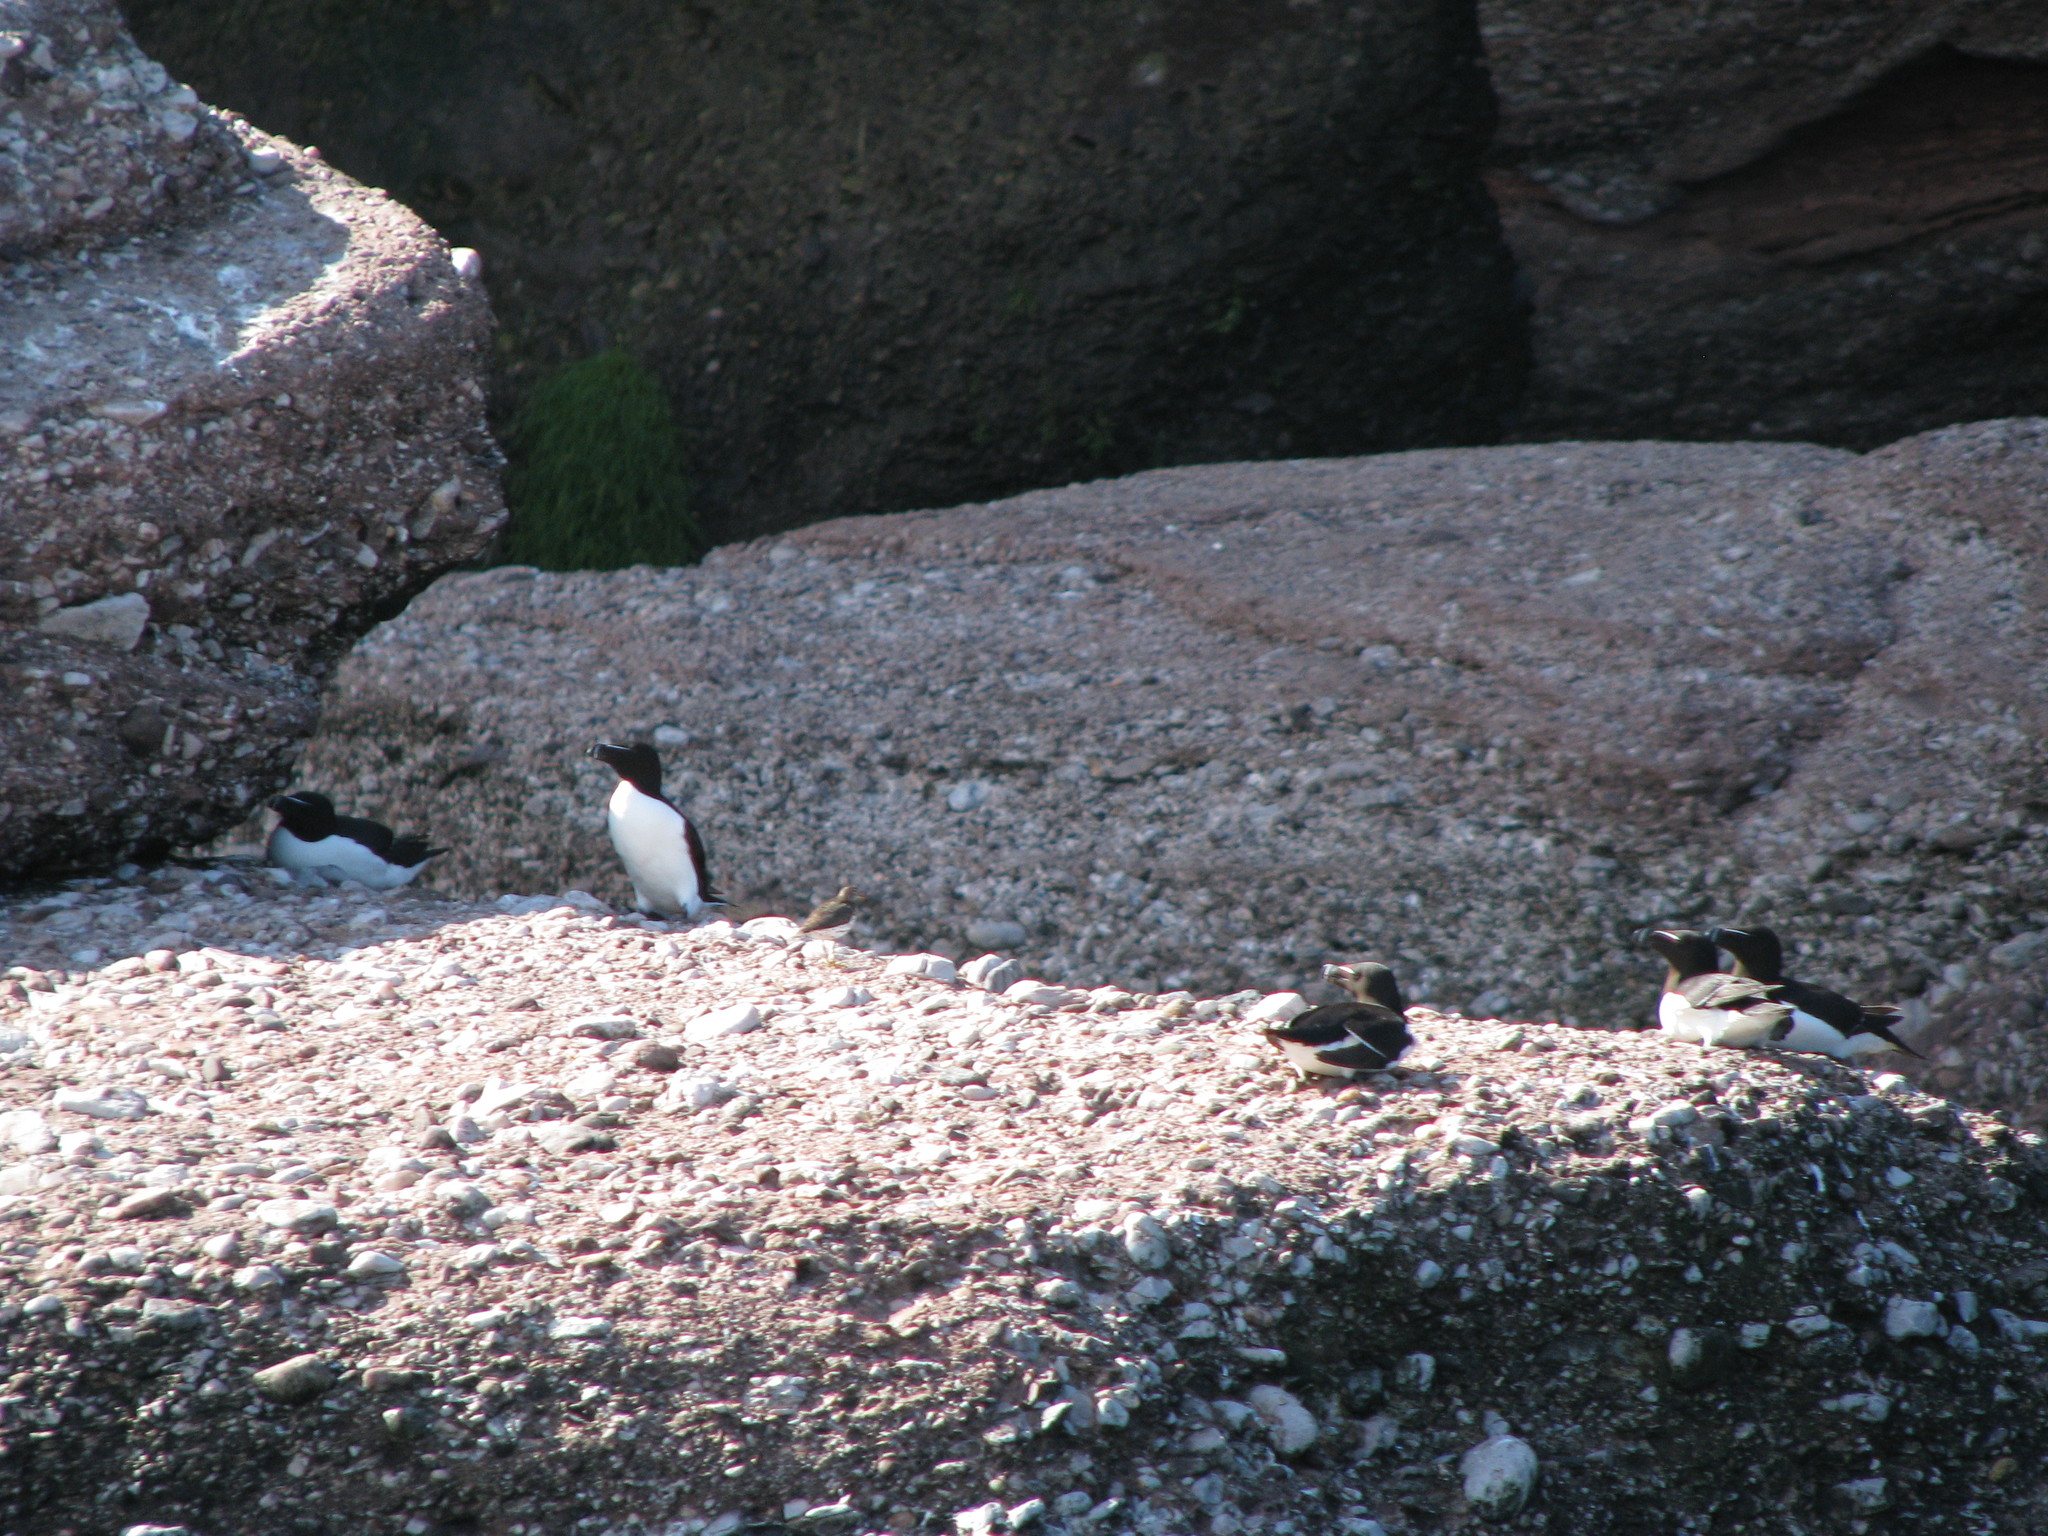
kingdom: Animalia
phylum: Chordata
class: Aves
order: Charadriiformes
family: Alcidae
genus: Alca
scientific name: Alca torda
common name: Razorbill
